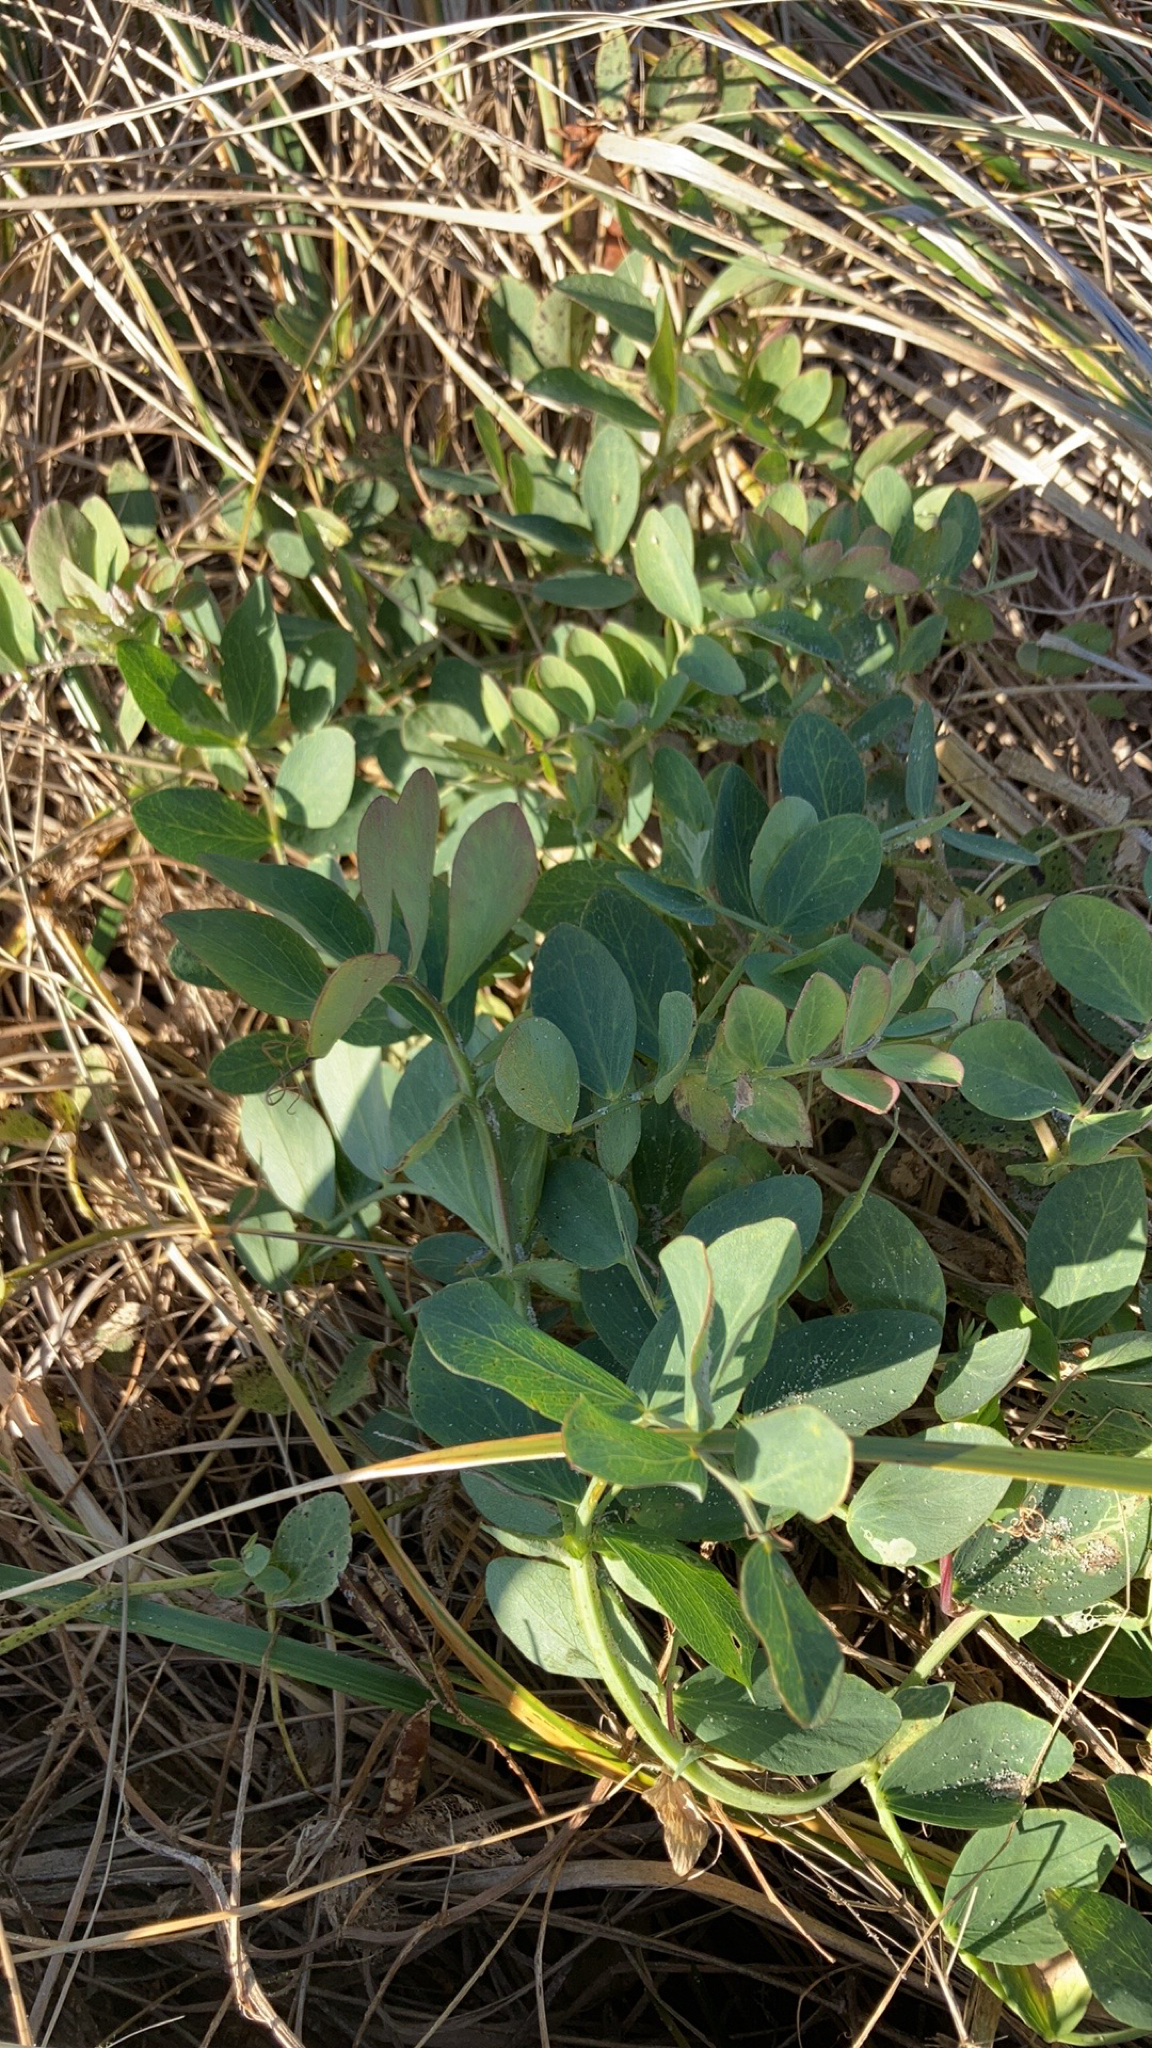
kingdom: Plantae
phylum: Tracheophyta
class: Magnoliopsida
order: Fabales
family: Fabaceae
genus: Lathyrus
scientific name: Lathyrus japonicus
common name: Sea pea
